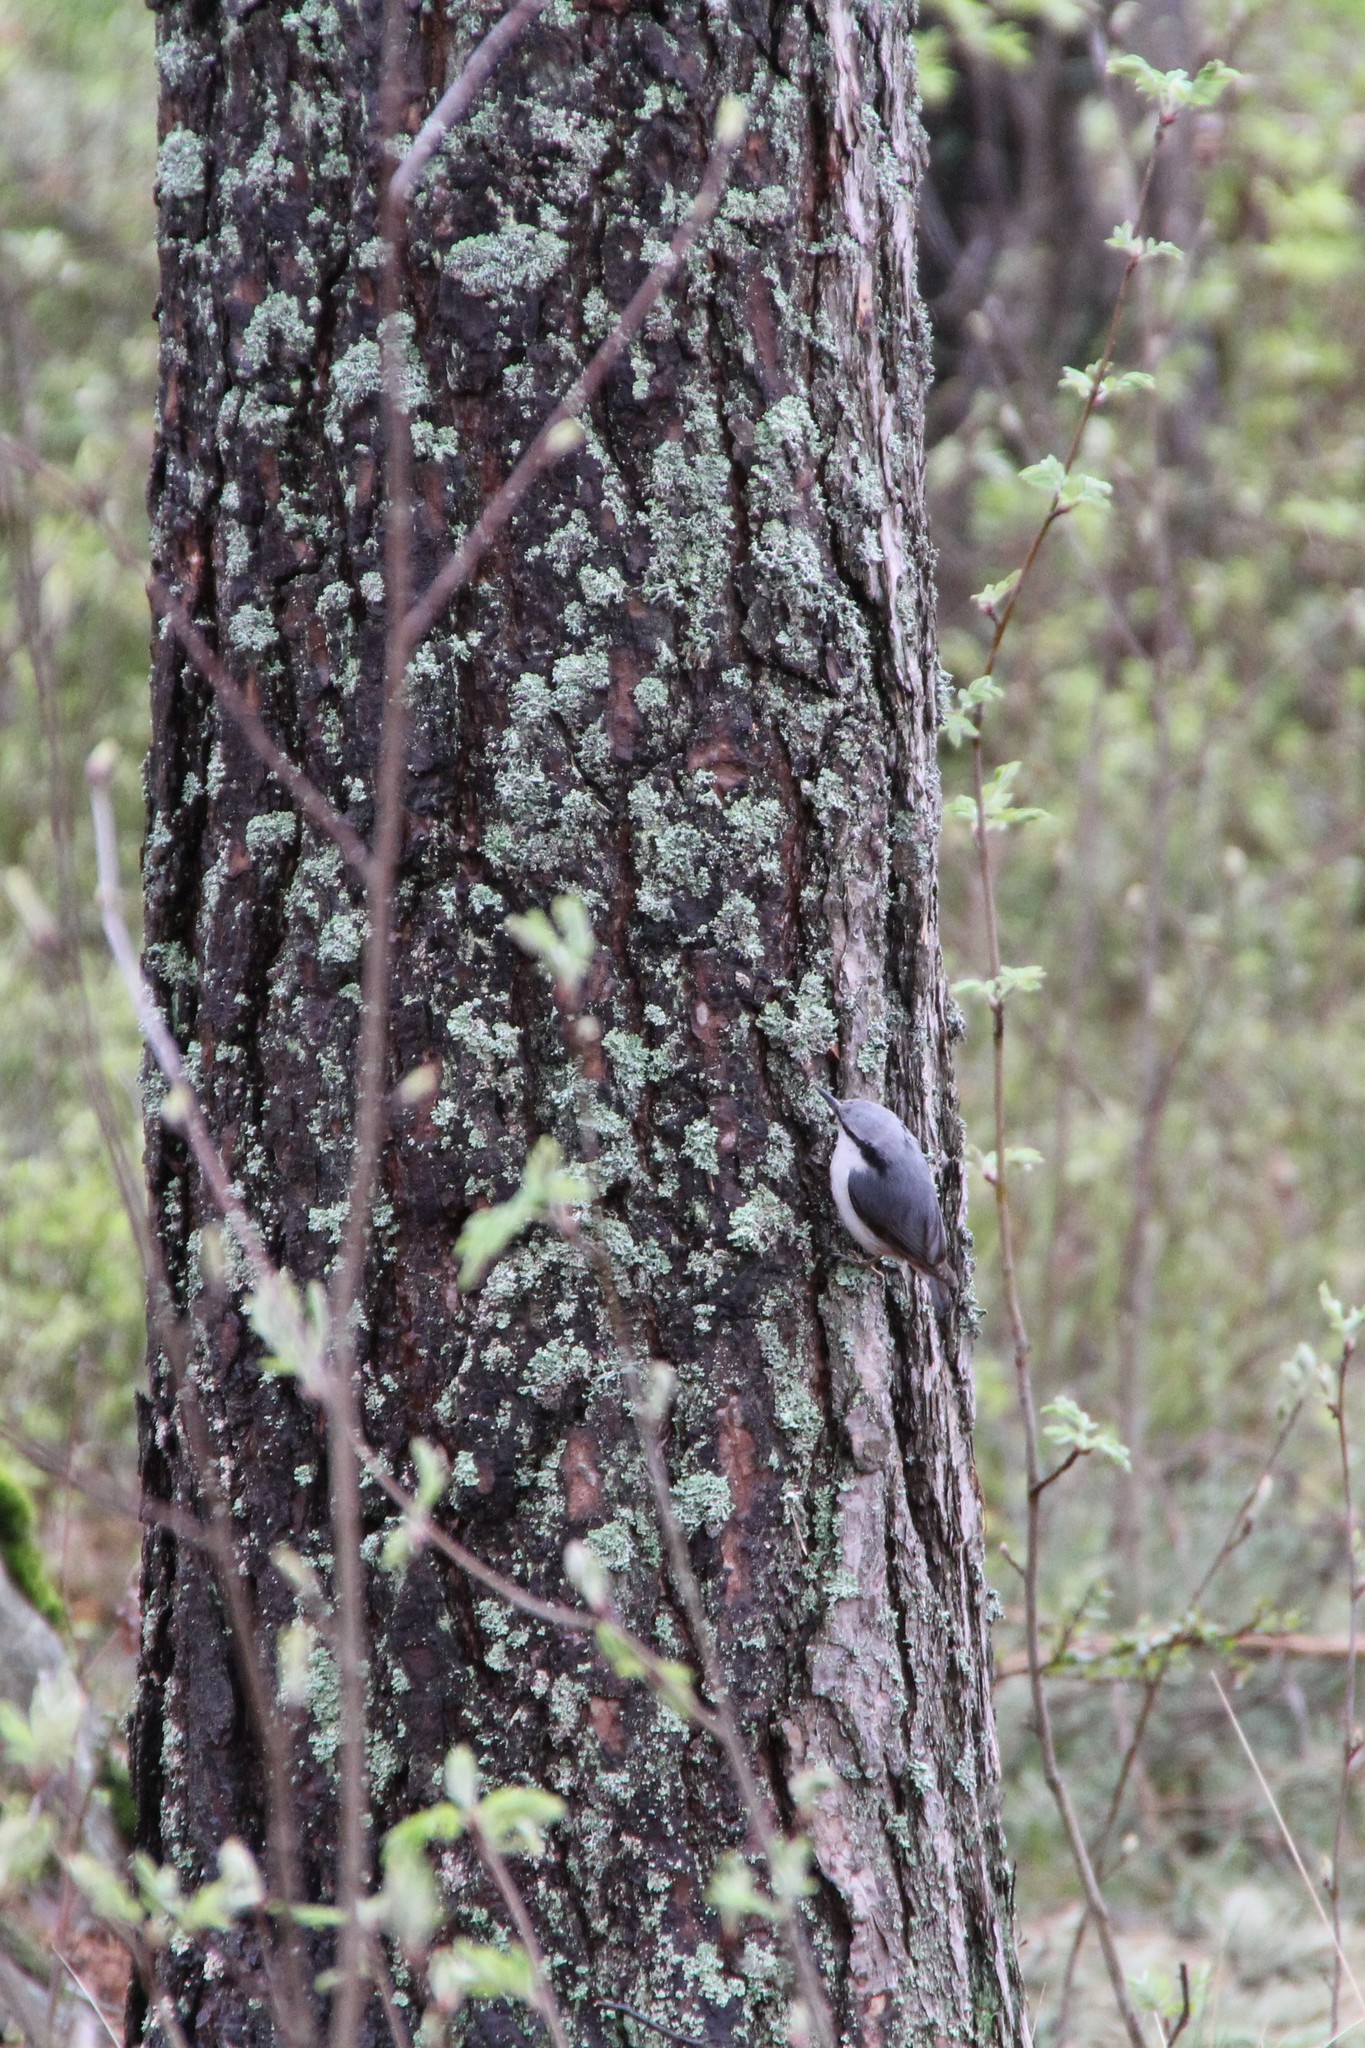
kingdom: Animalia
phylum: Chordata
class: Aves
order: Passeriformes
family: Sittidae
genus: Sitta
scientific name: Sitta europaea
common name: Eurasian nuthatch
